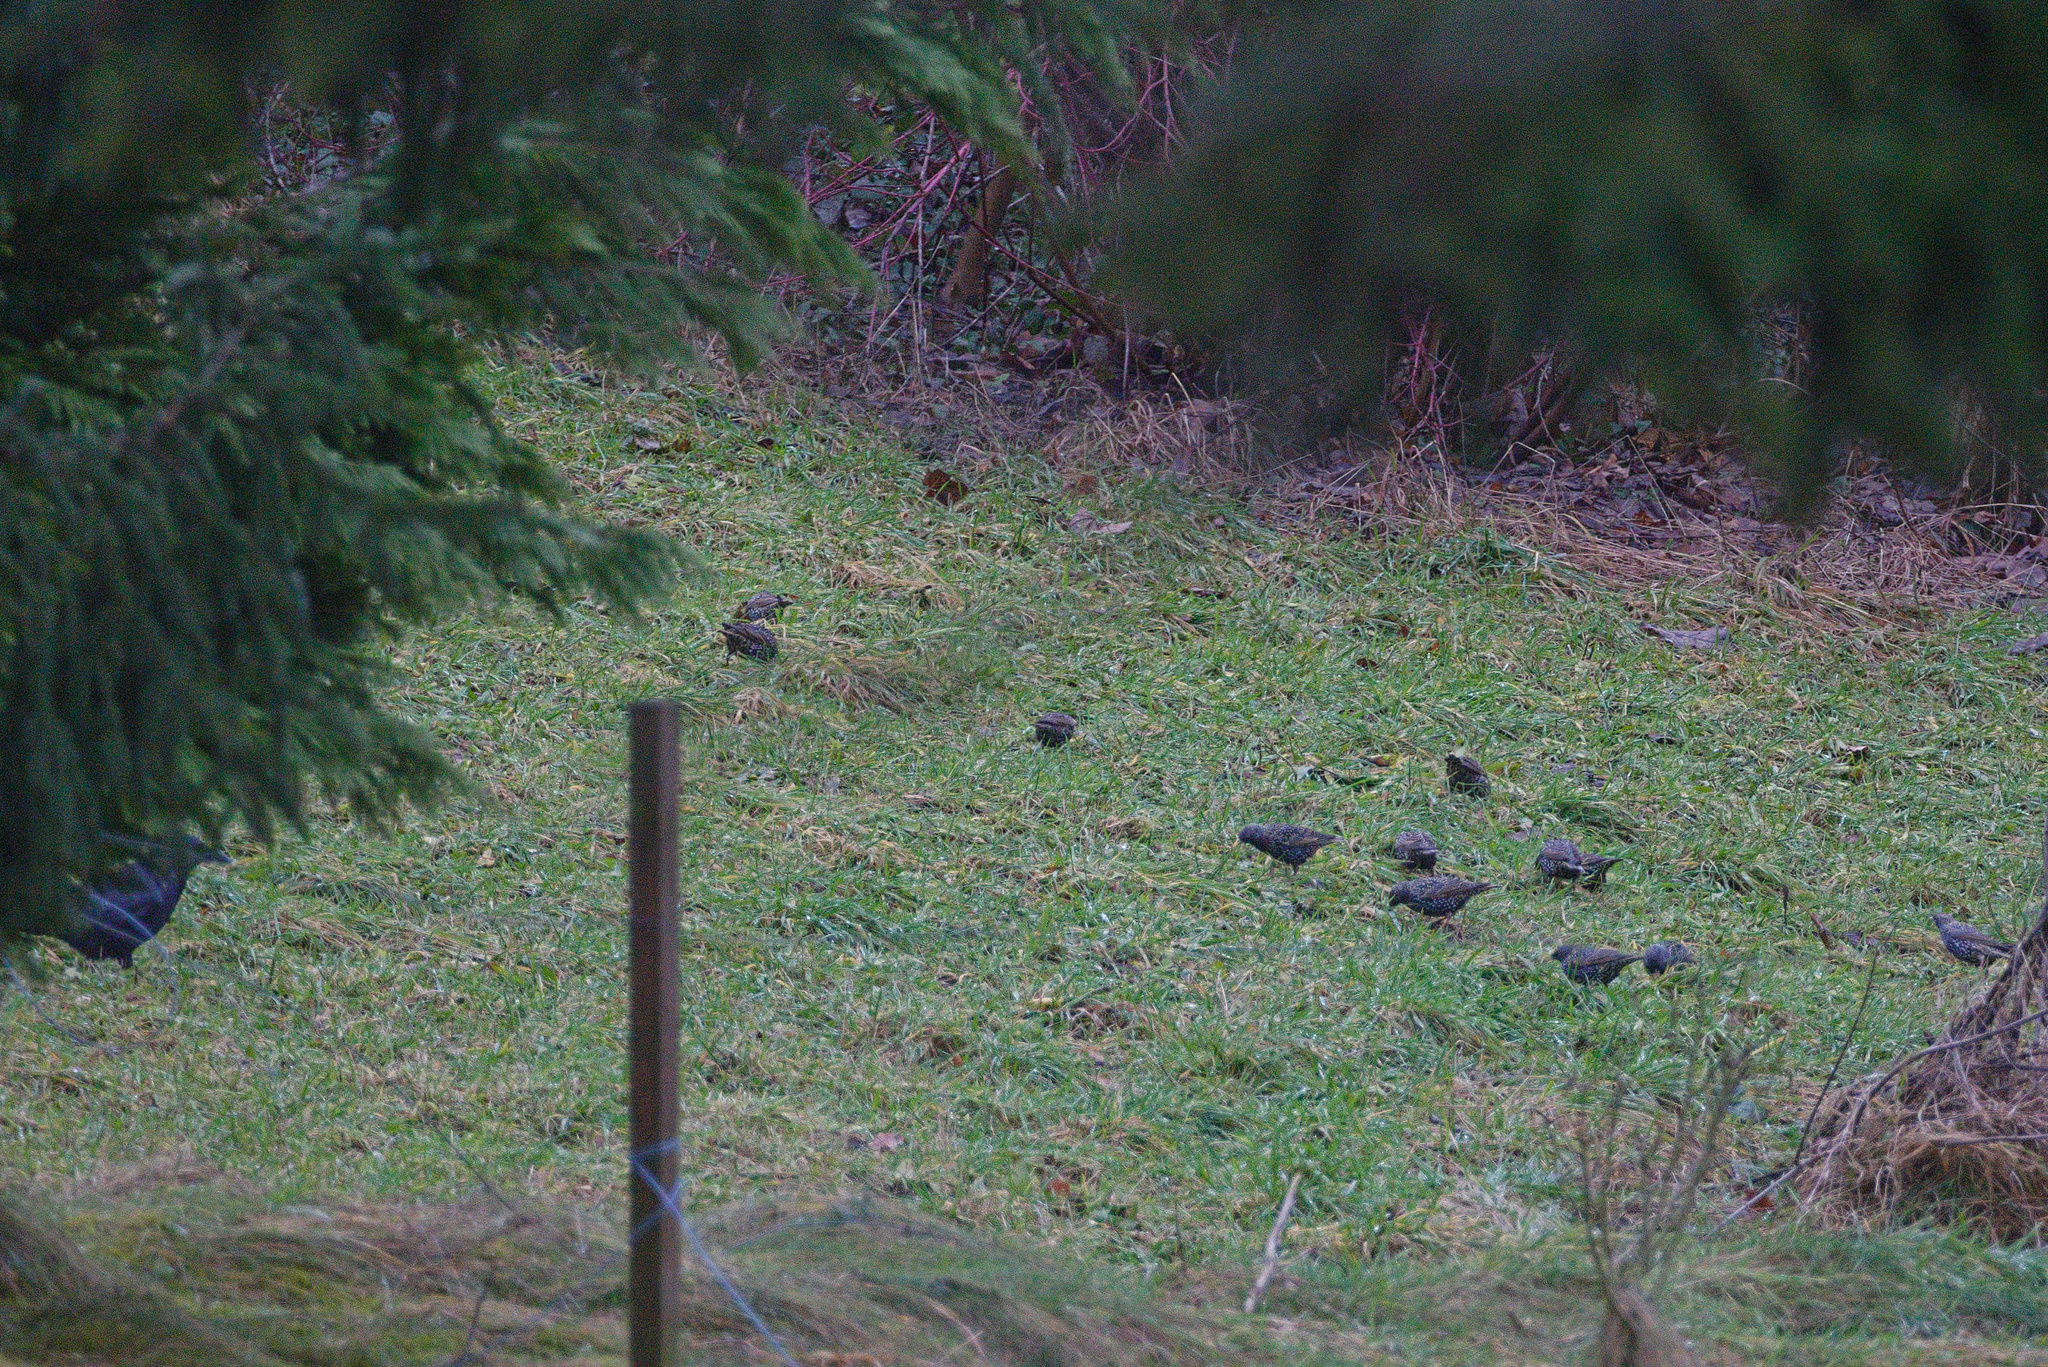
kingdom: Animalia
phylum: Chordata
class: Aves
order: Passeriformes
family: Sturnidae
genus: Sturnus
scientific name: Sturnus vulgaris
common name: Common starling
